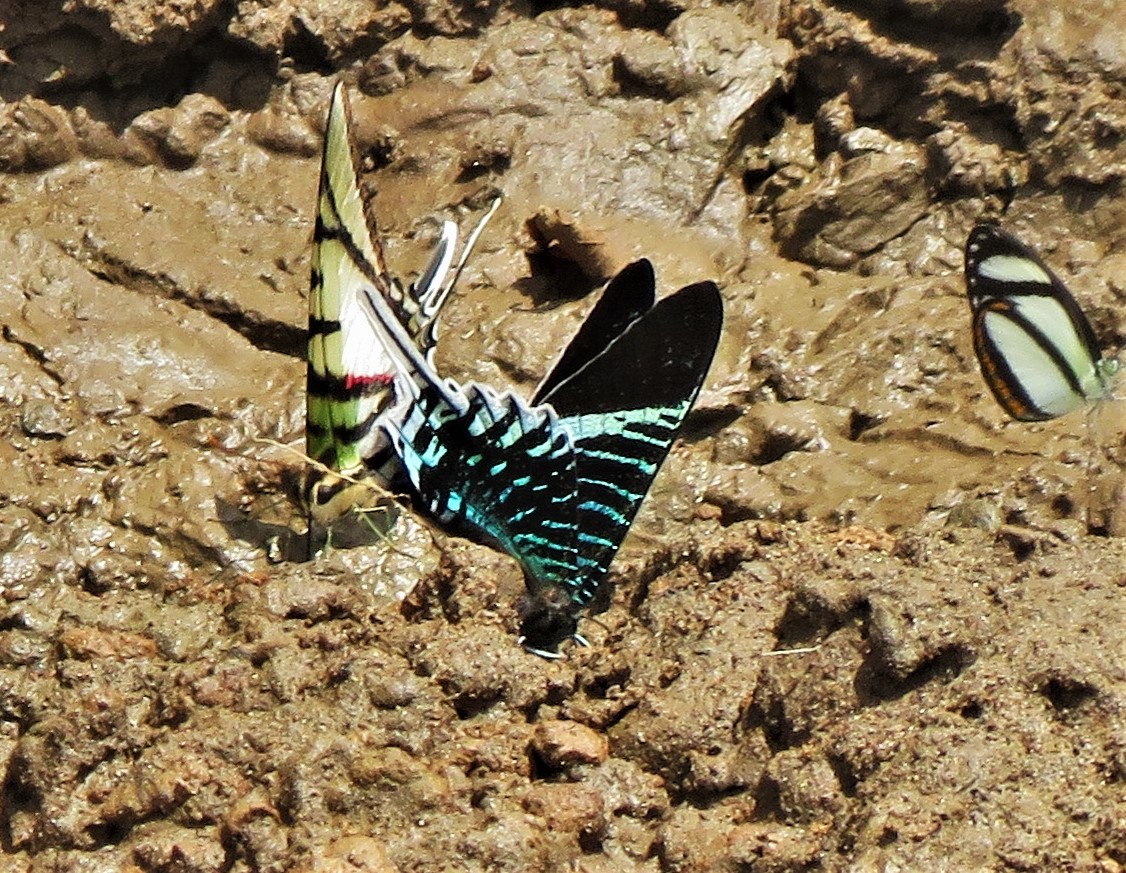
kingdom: Animalia
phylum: Arthropoda
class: Insecta
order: Lepidoptera
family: Uraniidae
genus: Urania
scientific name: Urania leilus
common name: Peacock moth
